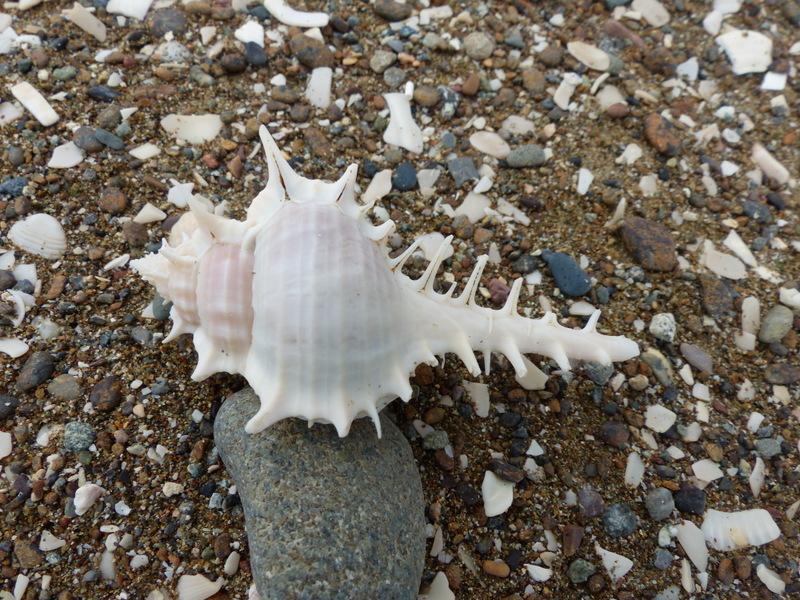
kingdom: Animalia
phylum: Mollusca
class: Gastropoda
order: Neogastropoda
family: Muricidae
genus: Murex
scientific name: Murex scolopax
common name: Woodcock murex
